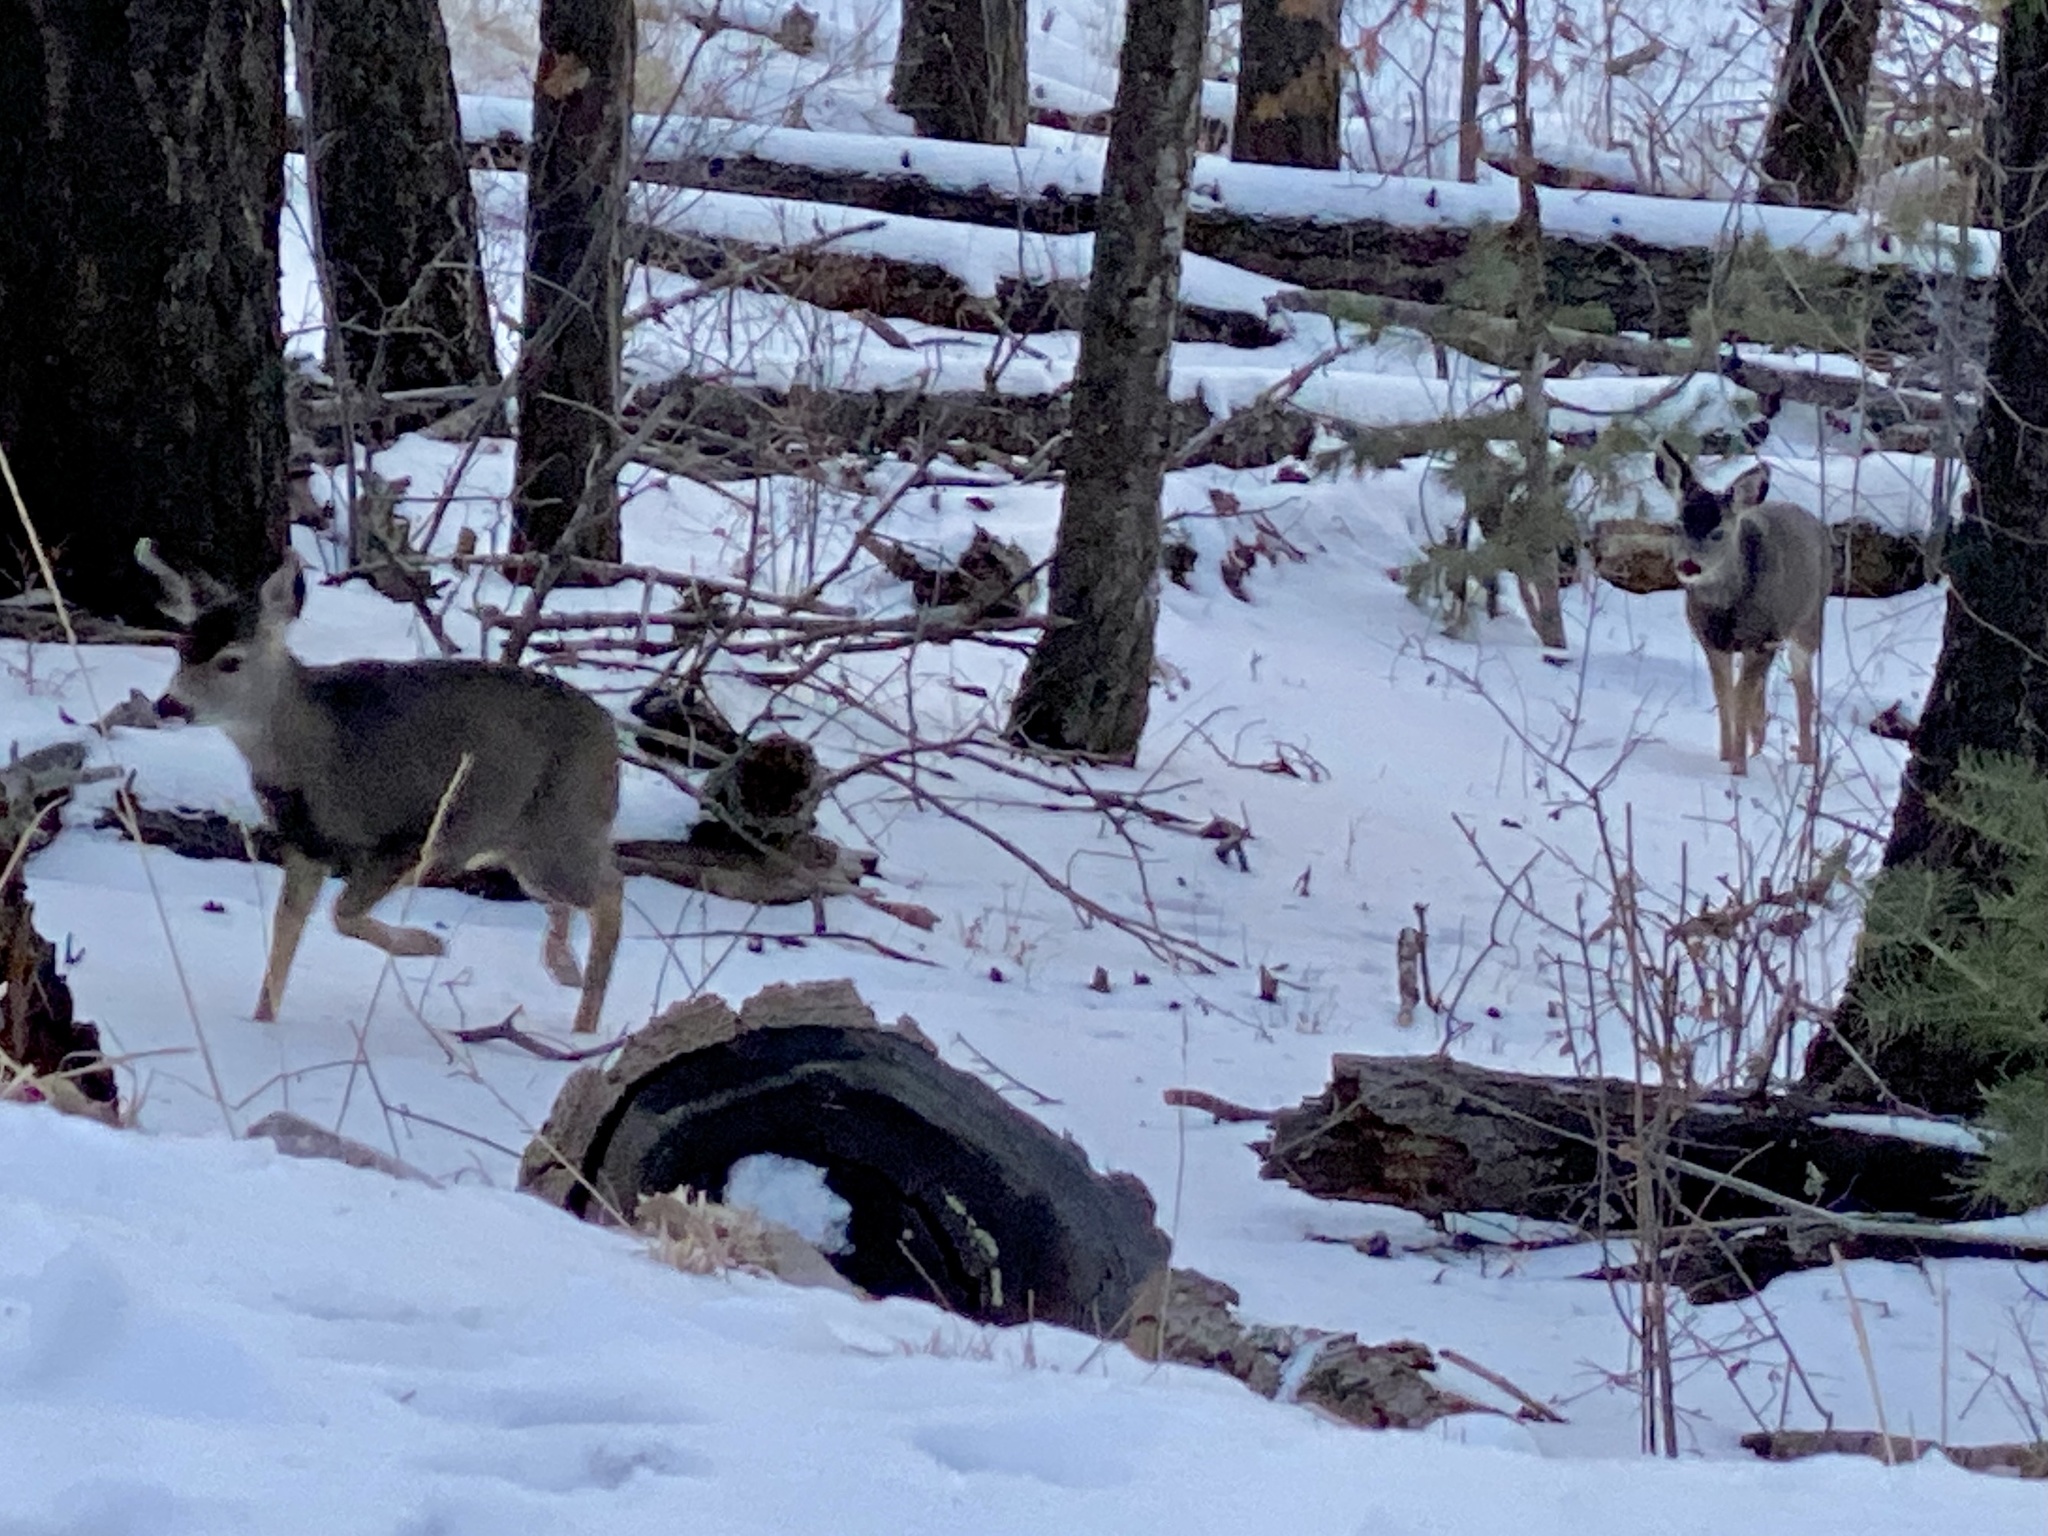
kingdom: Animalia
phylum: Chordata
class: Mammalia
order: Artiodactyla
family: Cervidae
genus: Odocoileus
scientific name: Odocoileus hemionus
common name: Mule deer
